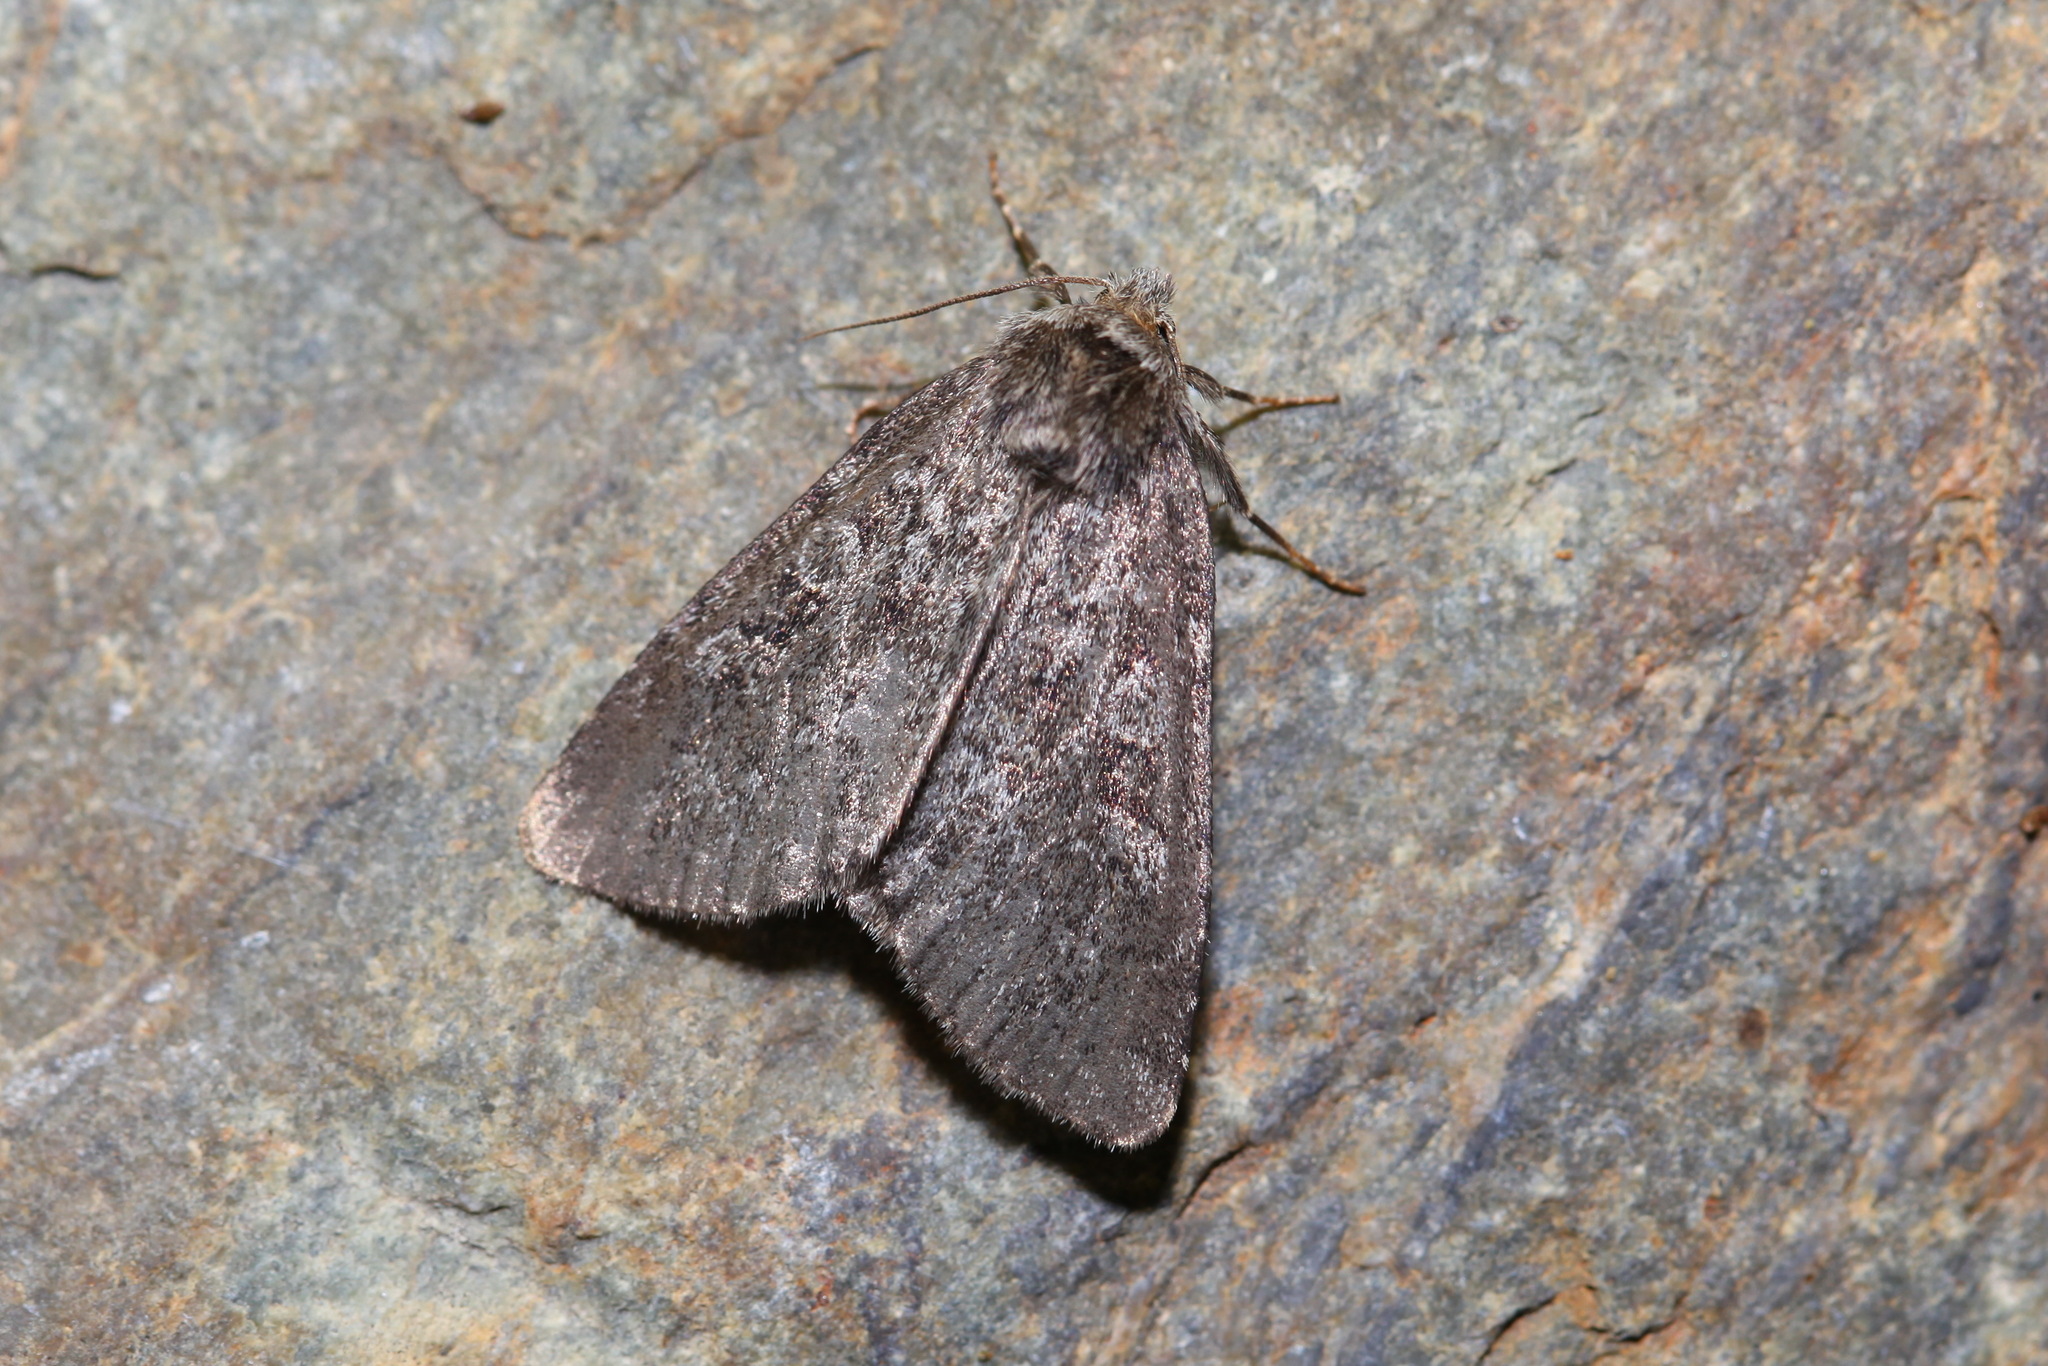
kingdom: Animalia
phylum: Arthropoda
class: Insecta
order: Lepidoptera
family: Noctuidae
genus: Xestia
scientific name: Xestia laetabilis
